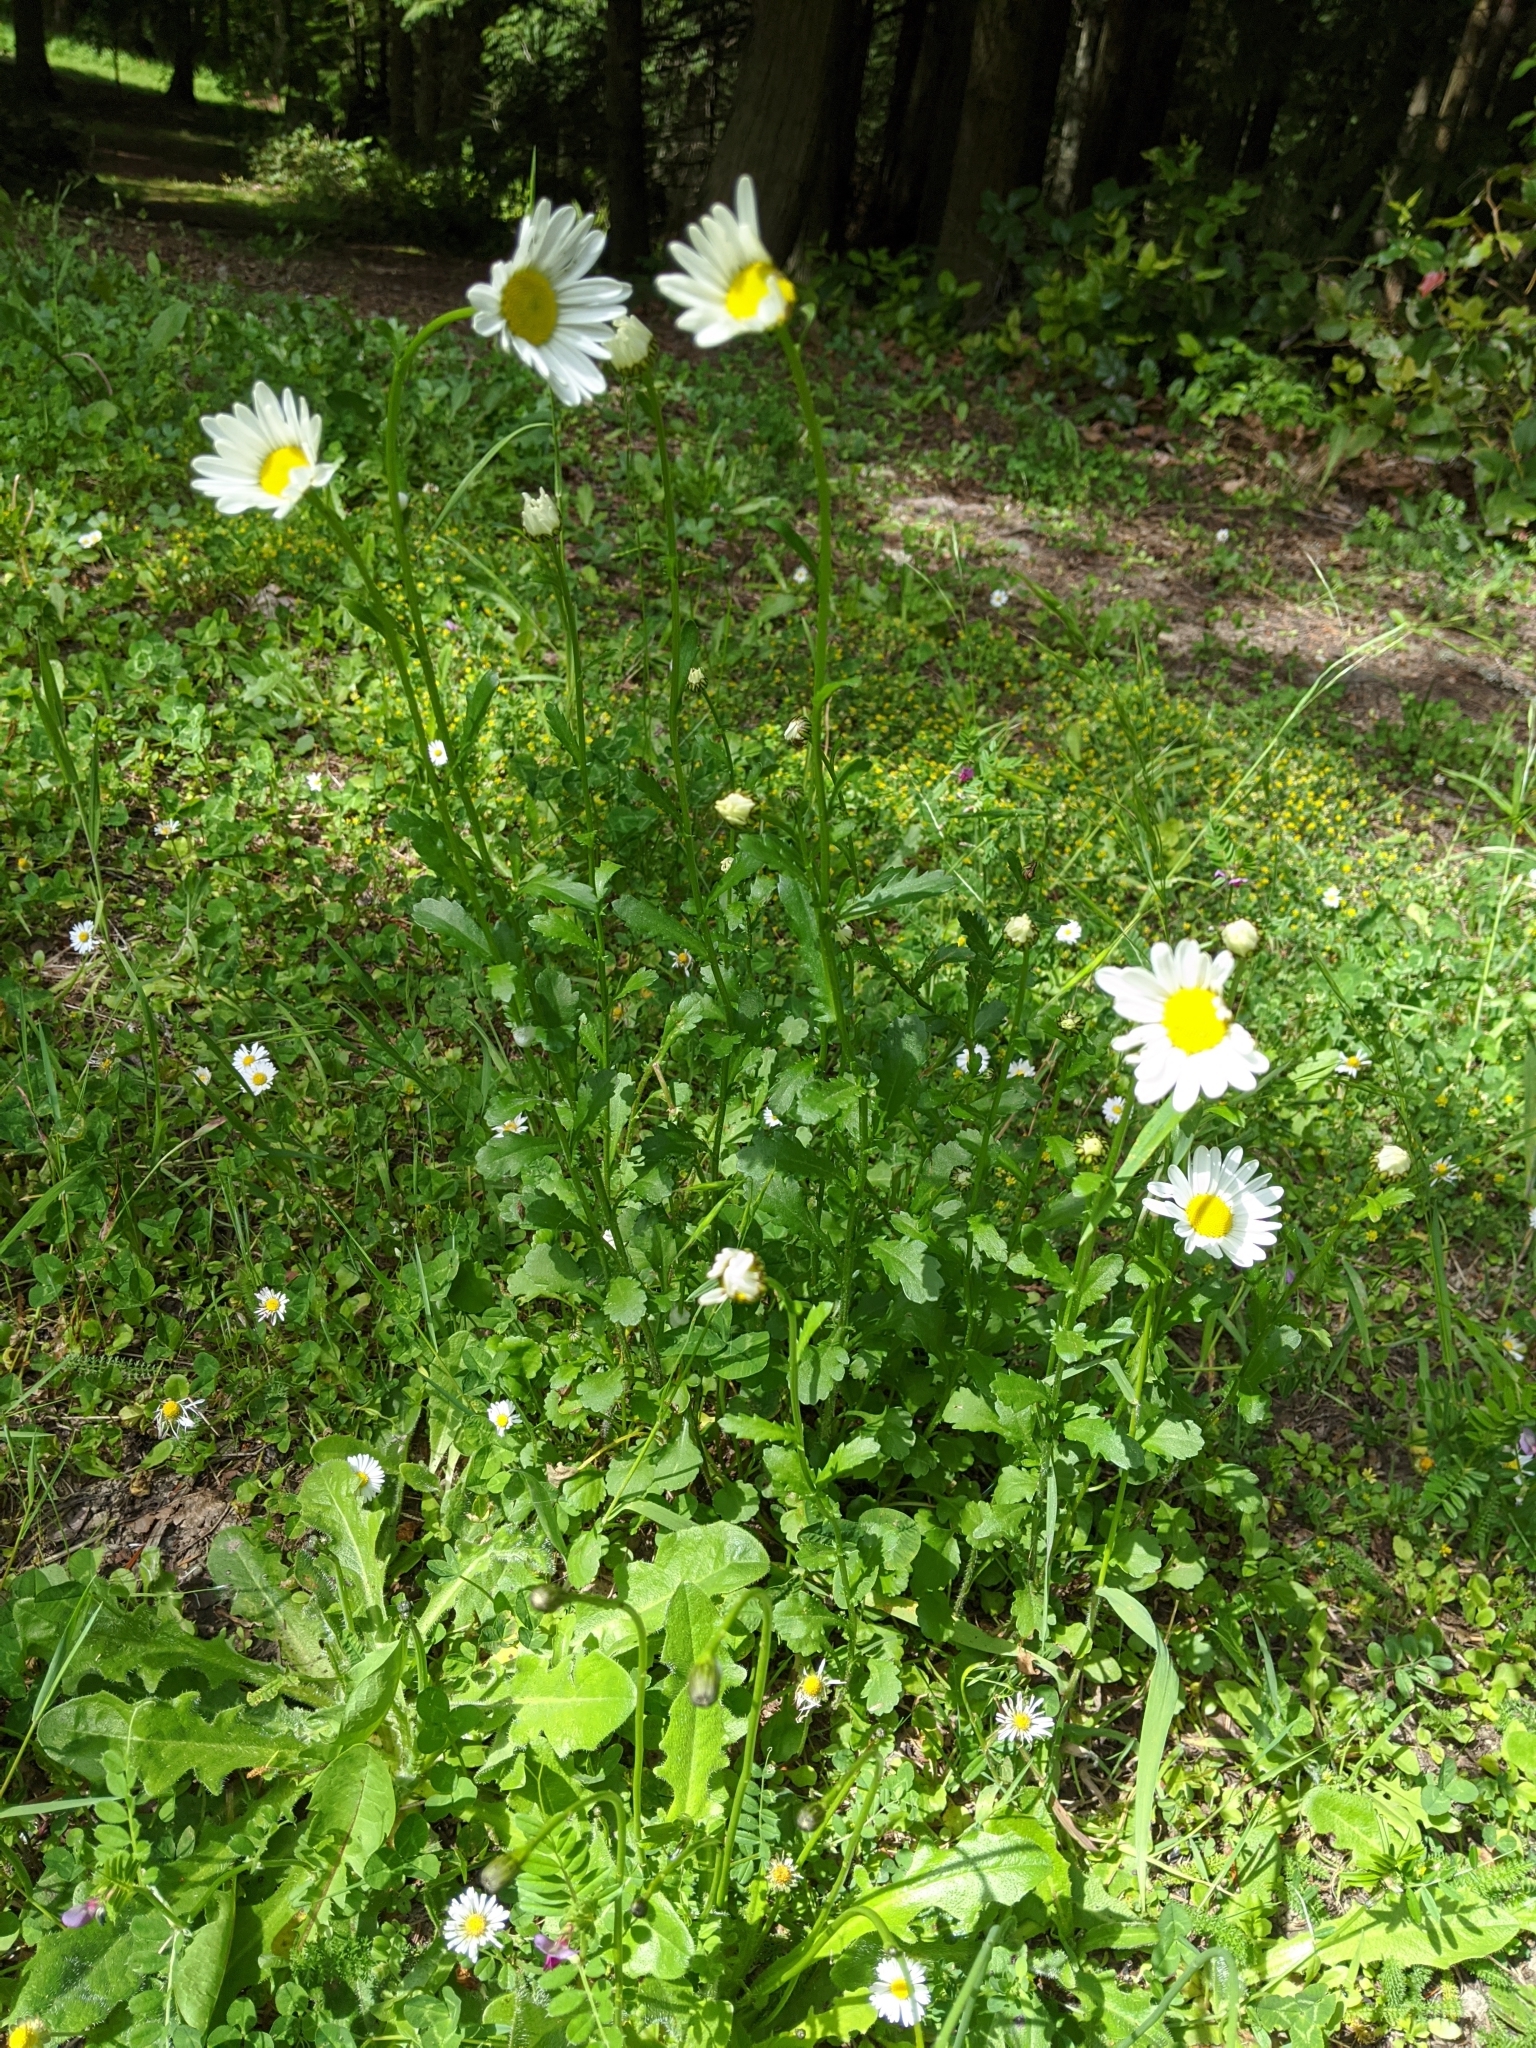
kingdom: Plantae
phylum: Tracheophyta
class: Magnoliopsida
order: Asterales
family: Asteraceae
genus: Leucanthemum
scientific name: Leucanthemum vulgare
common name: Oxeye daisy
